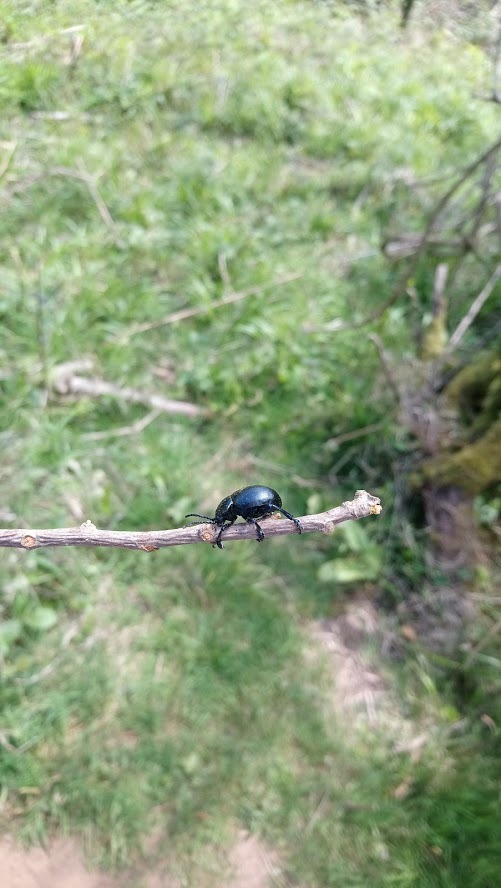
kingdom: Animalia
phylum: Arthropoda
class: Insecta
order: Coleoptera
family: Chrysomelidae
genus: Timarcha
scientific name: Timarcha tenebricosa
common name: Bloody-nosed beetle
